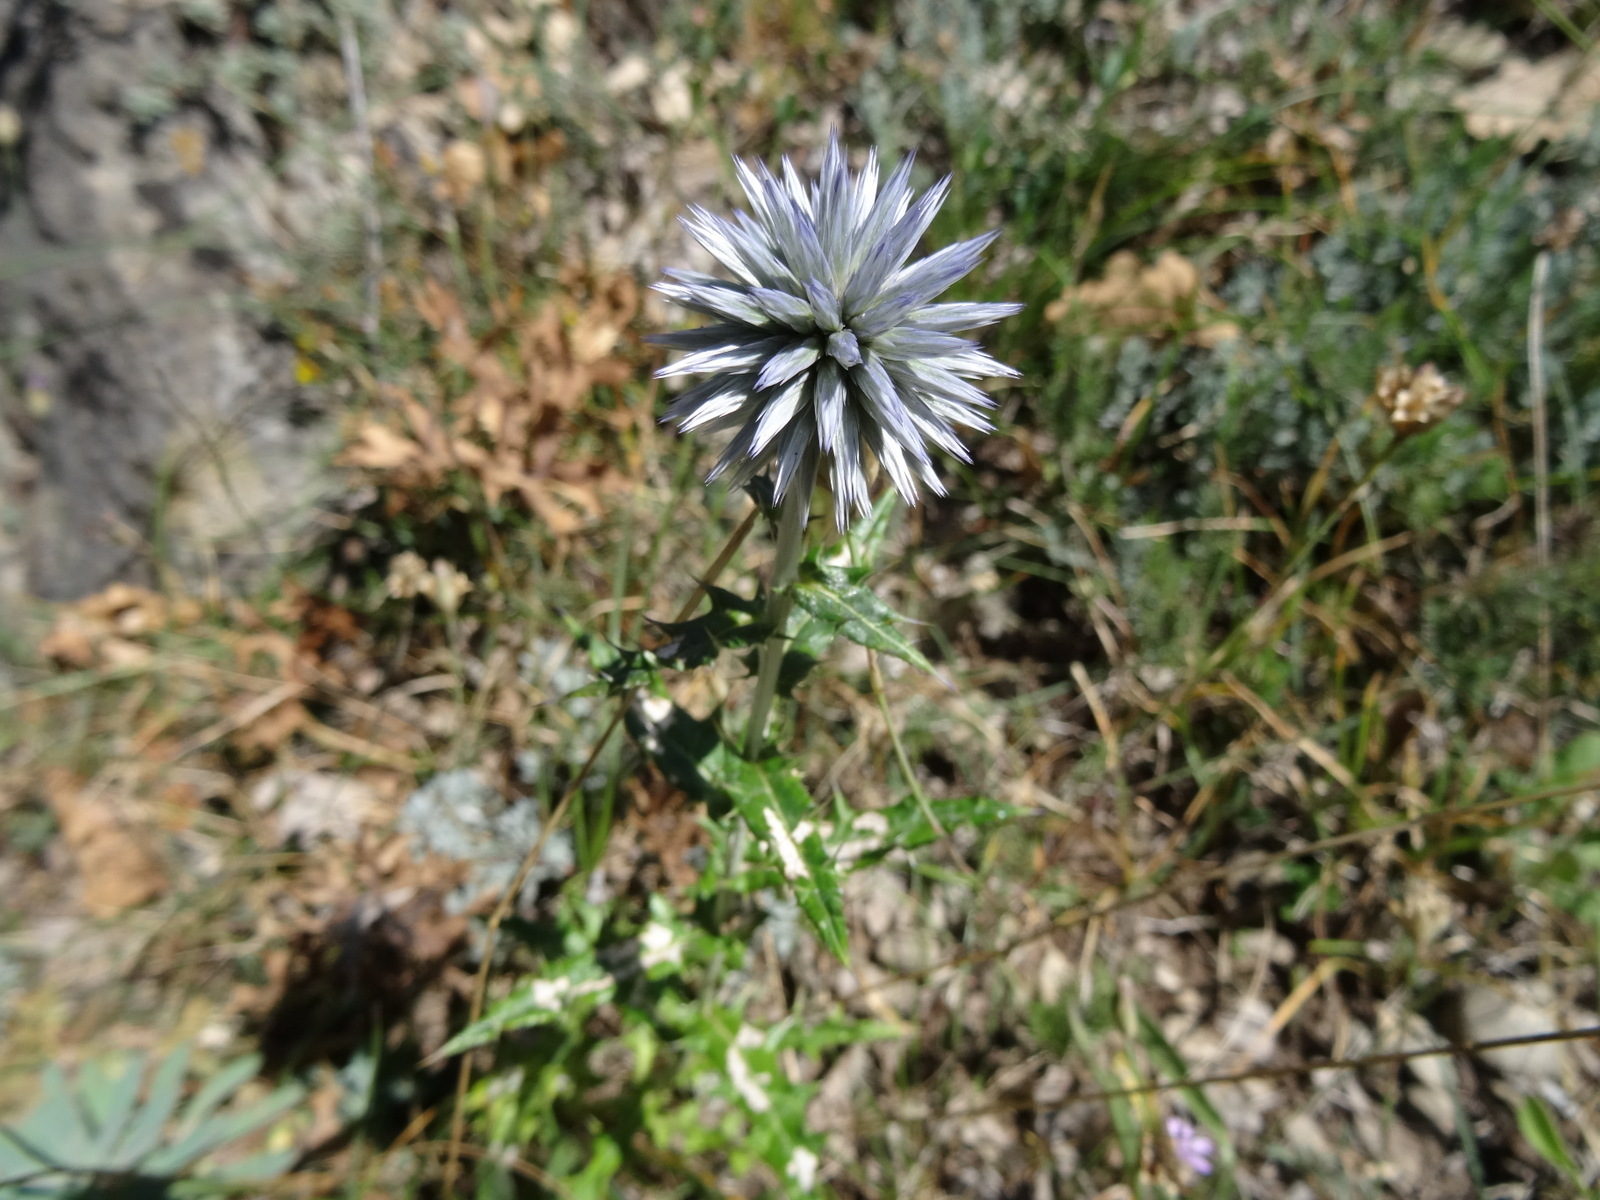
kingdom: Plantae
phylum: Tracheophyta
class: Magnoliopsida
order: Asterales
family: Asteraceae
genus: Echinops
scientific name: Echinops ritro
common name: Globe thistle
